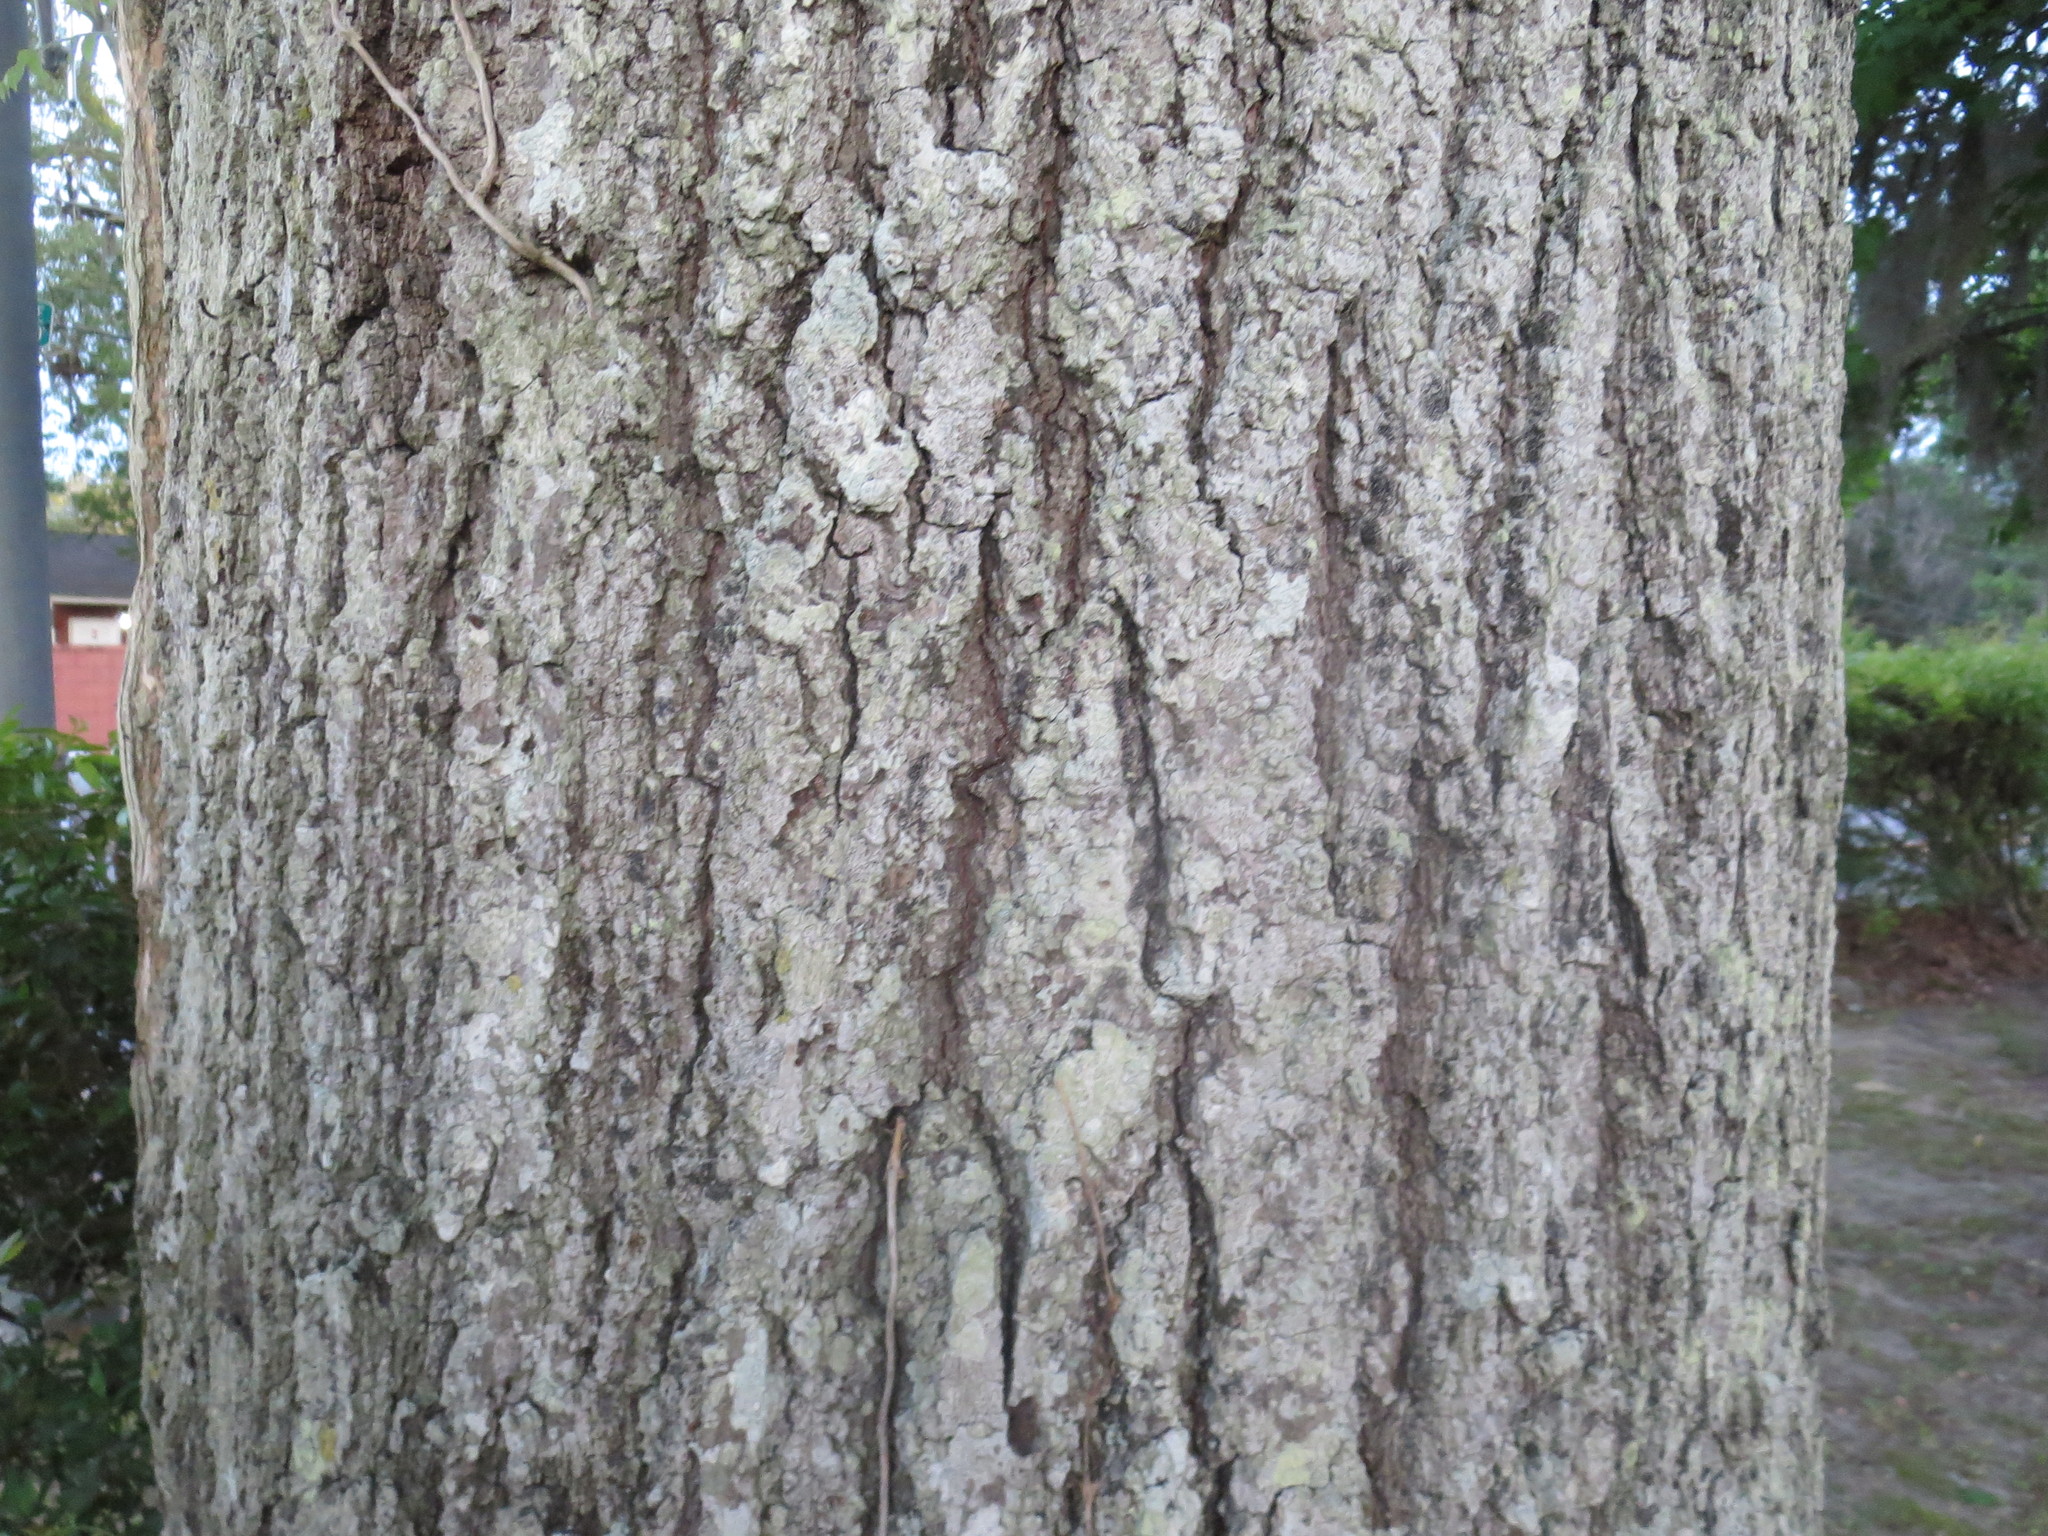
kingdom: Plantae
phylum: Tracheophyta
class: Magnoliopsida
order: Fagales
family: Fagaceae
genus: Quercus
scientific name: Quercus falcata
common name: Southern red oak
